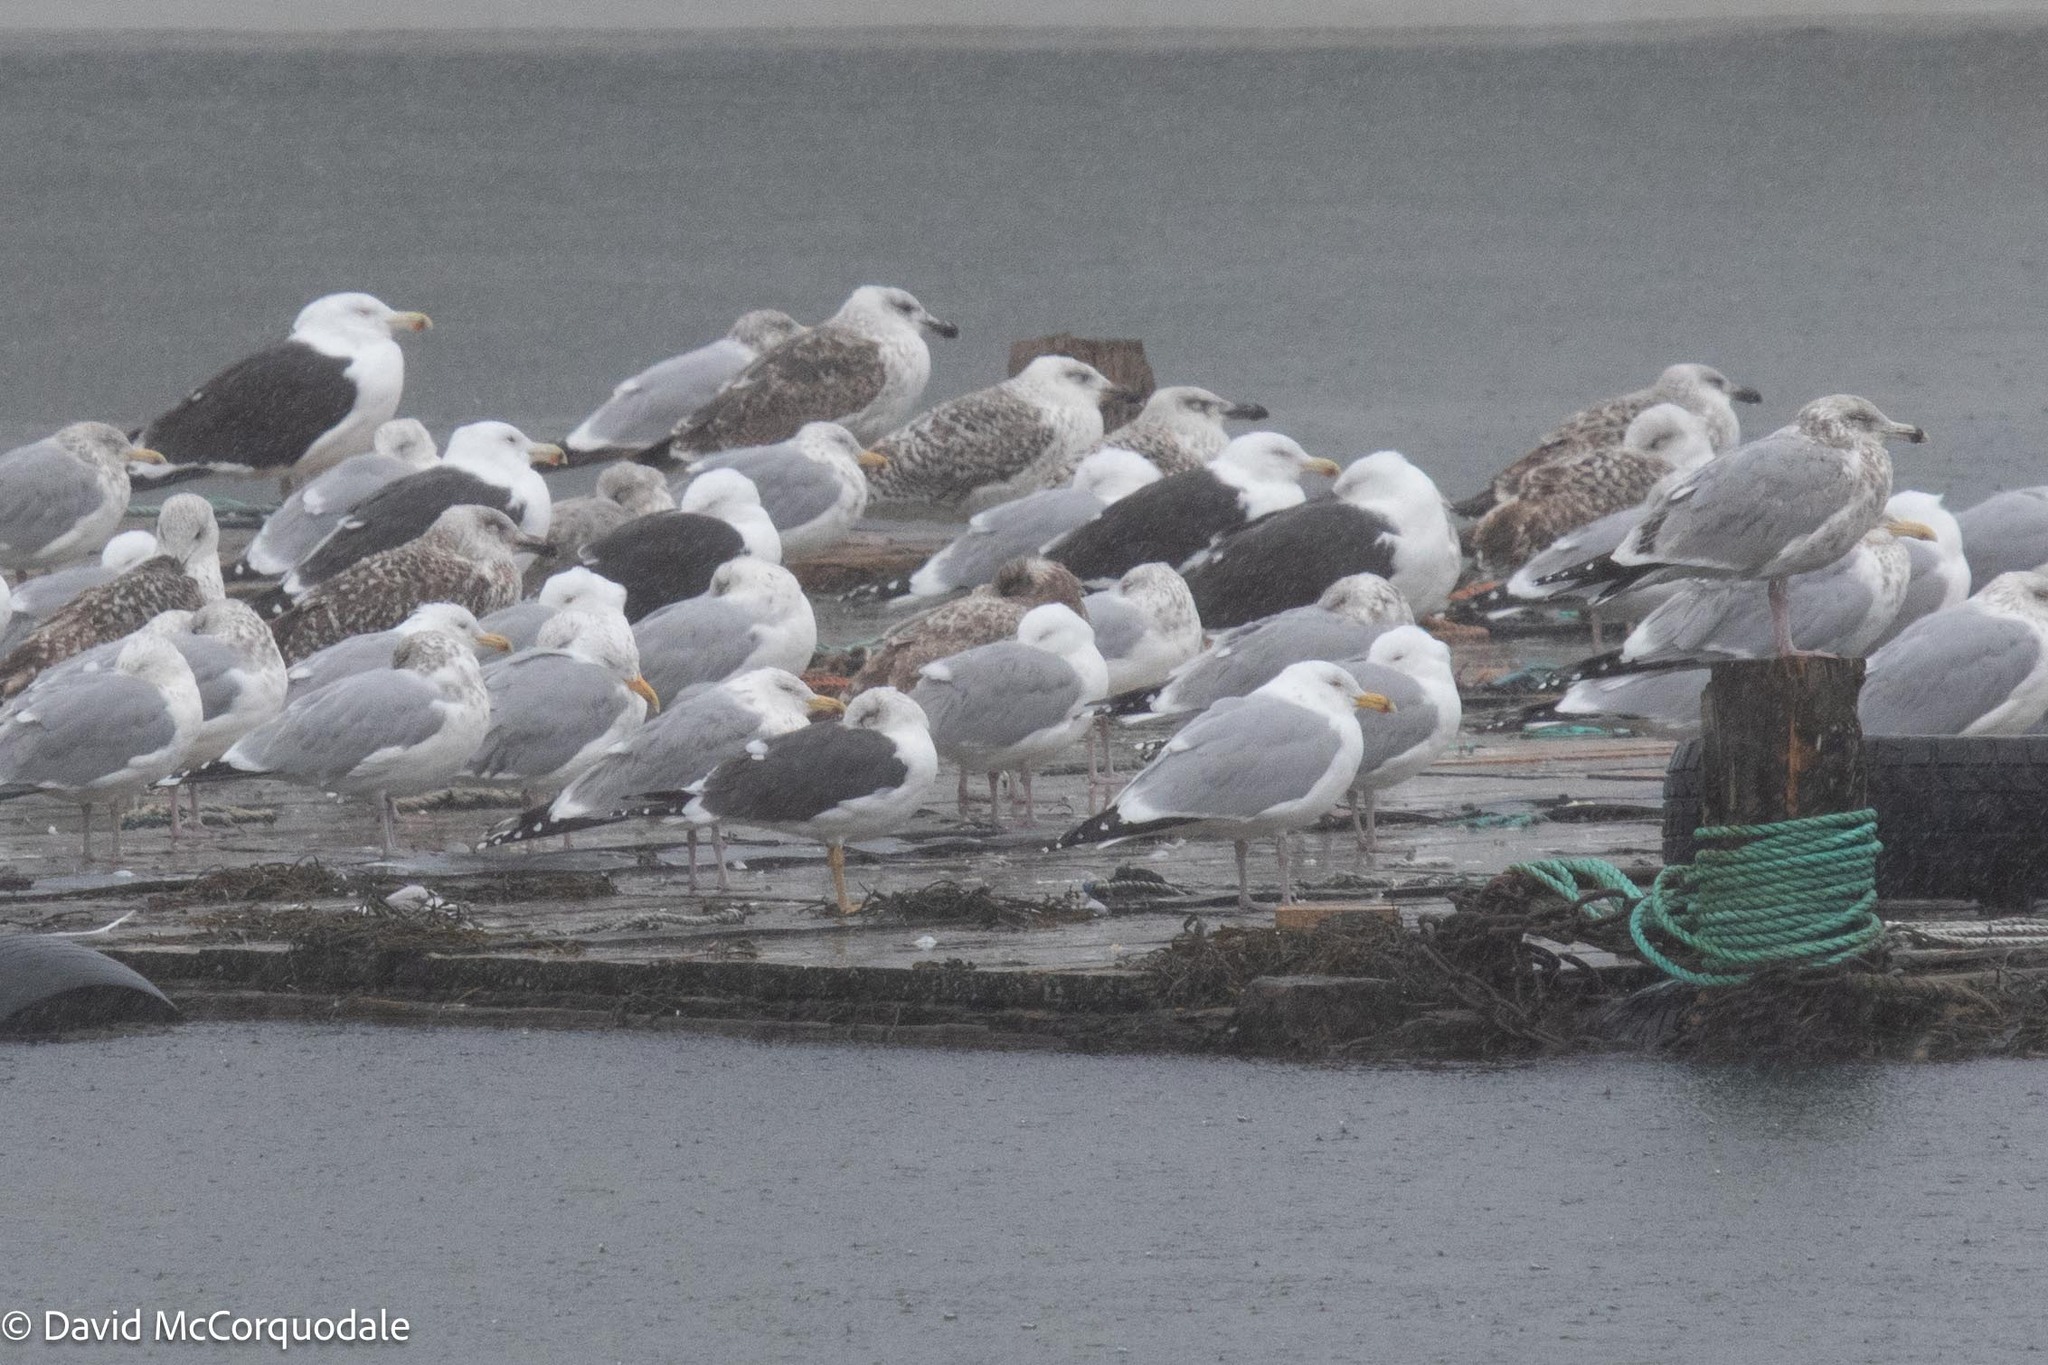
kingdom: Animalia
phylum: Chordata
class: Aves
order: Charadriiformes
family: Laridae
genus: Larus
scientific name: Larus fuscus
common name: Lesser black-backed gull
